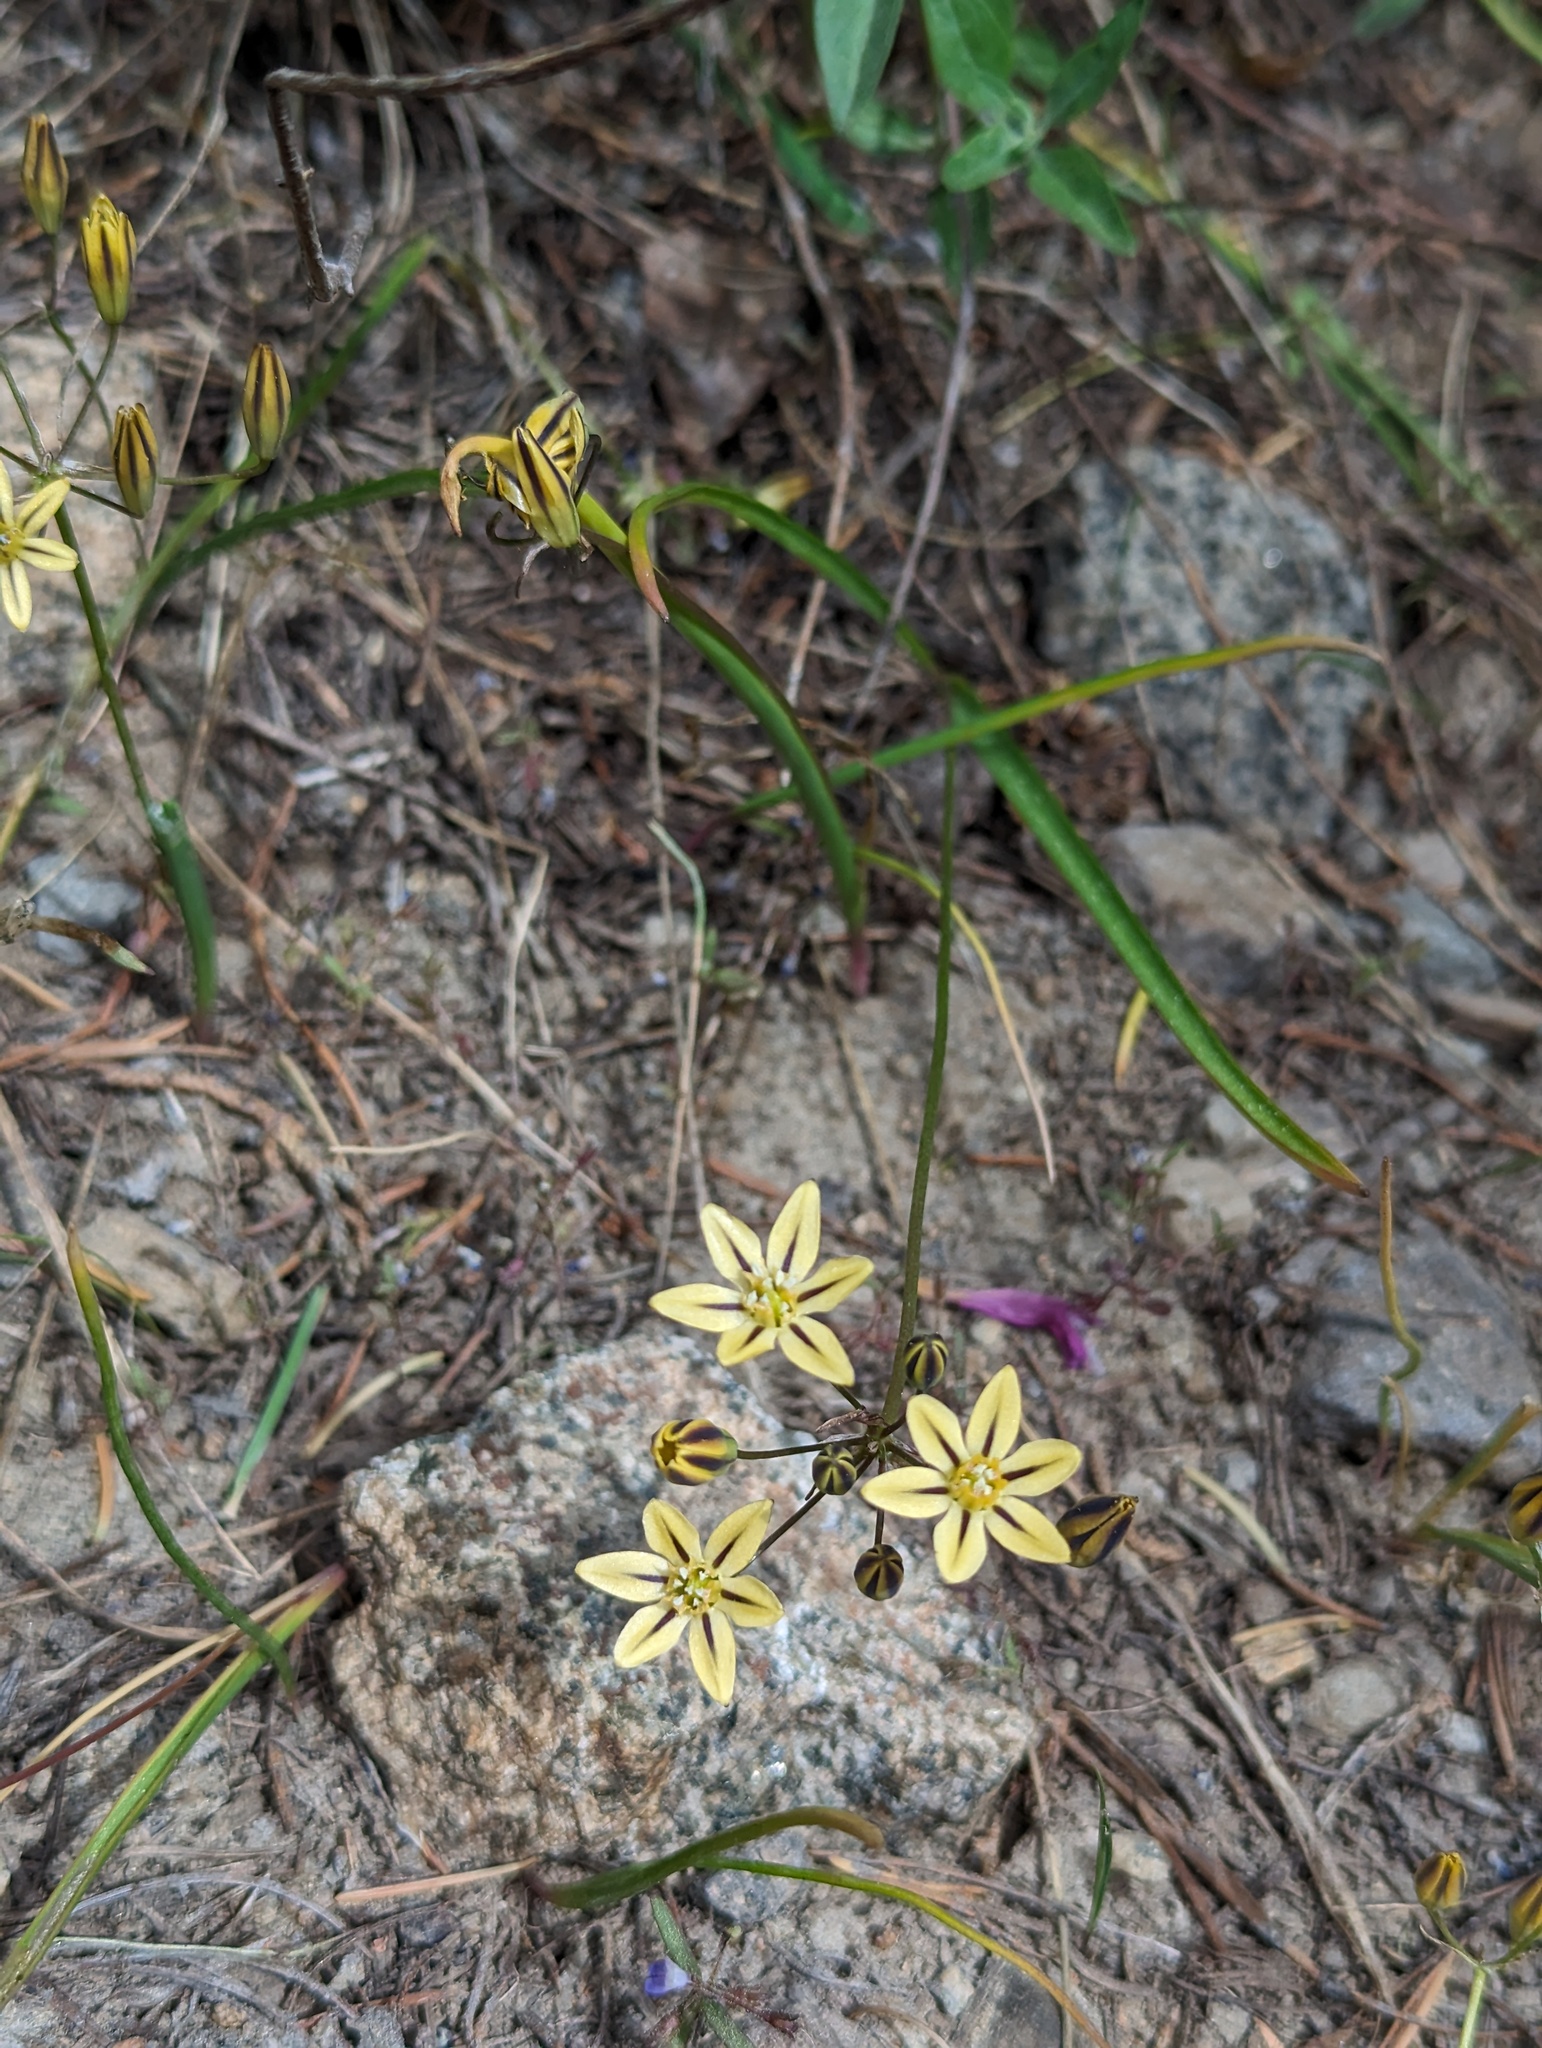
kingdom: Plantae
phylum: Tracheophyta
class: Liliopsida
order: Asparagales
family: Asparagaceae
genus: Triteleia
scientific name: Triteleia ixioides
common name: Yellow-brodiaea
